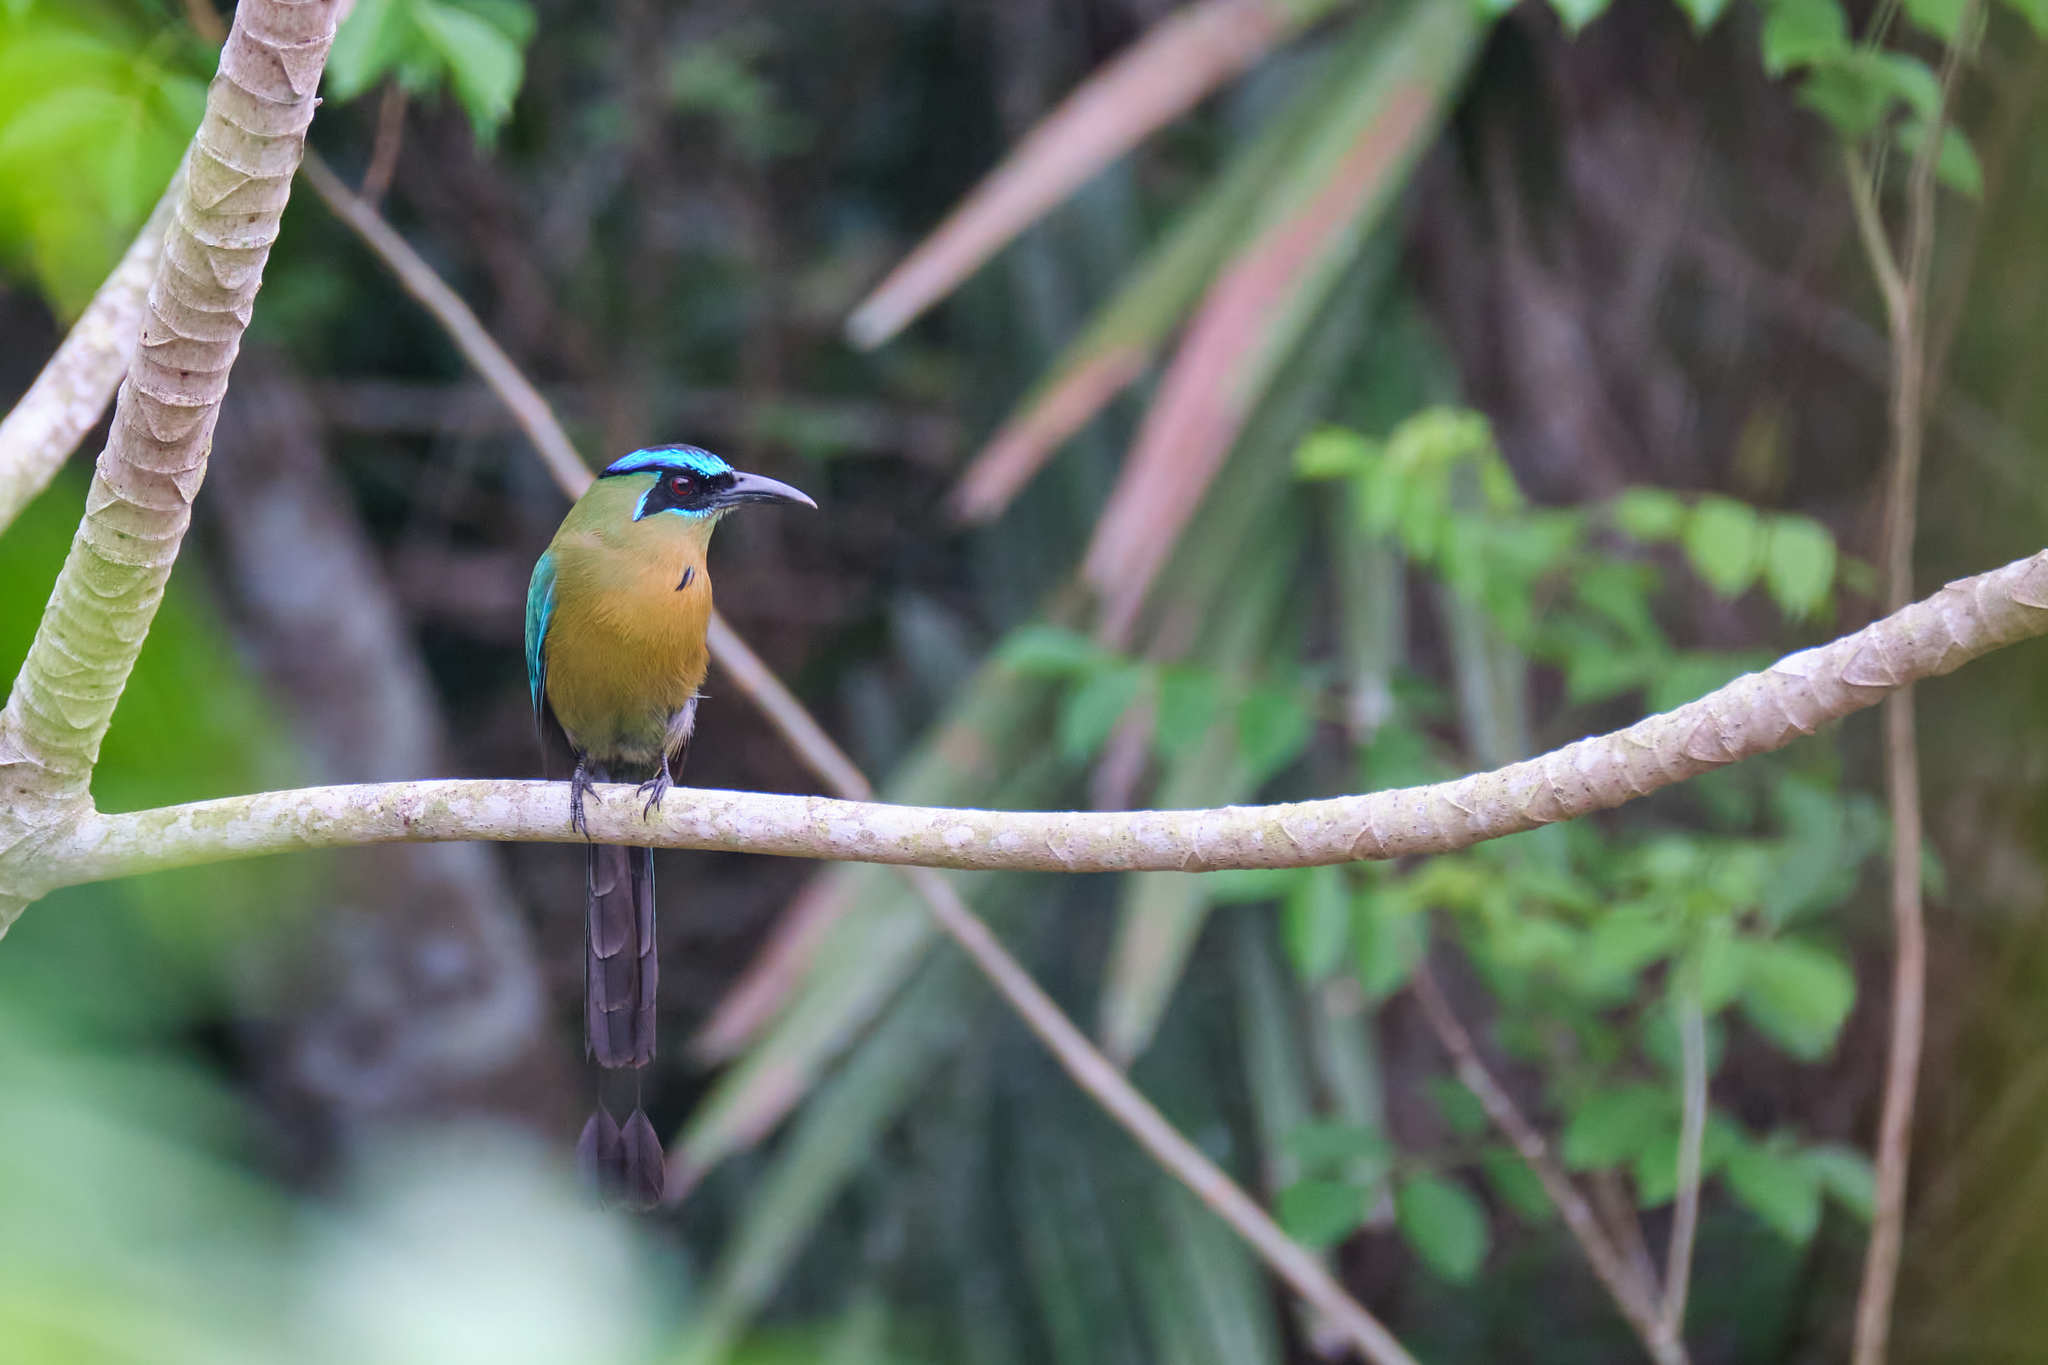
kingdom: Animalia
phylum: Chordata
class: Aves
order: Coraciiformes
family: Momotidae
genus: Momotus
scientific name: Momotus lessonii
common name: Lesson's motmot
